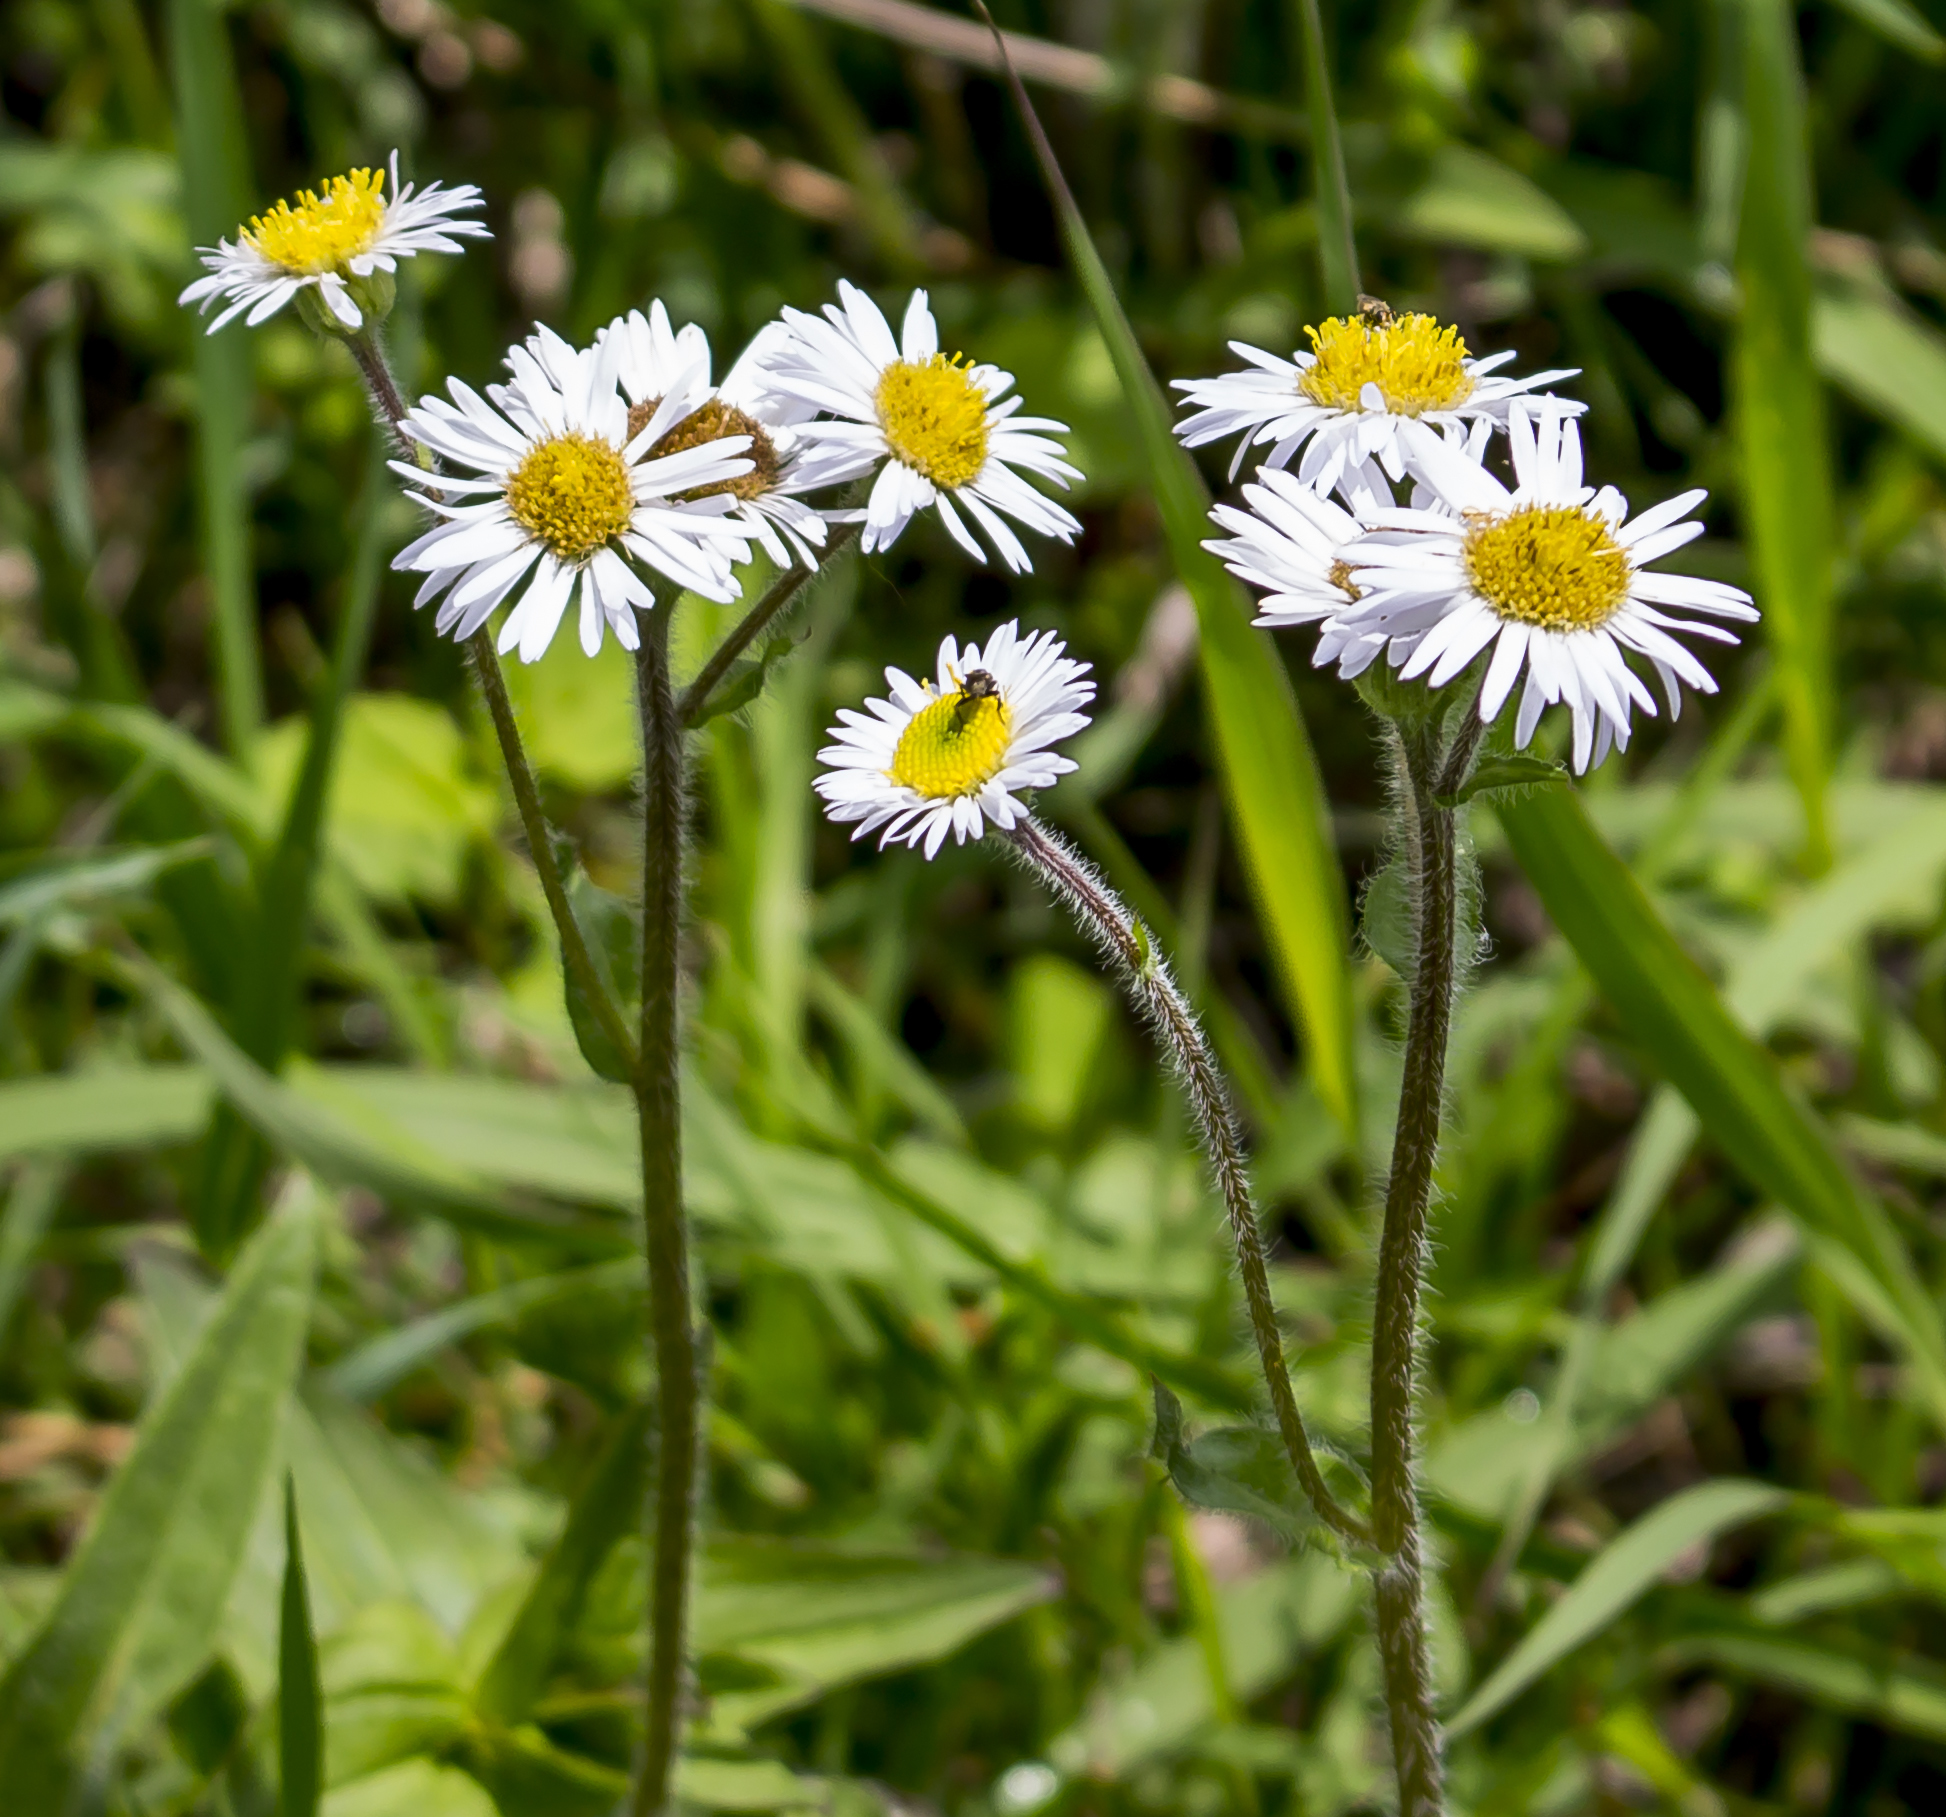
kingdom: Plantae
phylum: Tracheophyta
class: Magnoliopsida
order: Asterales
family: Asteraceae
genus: Erigeron
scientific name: Erigeron pulchellus
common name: Hairy fleabane
